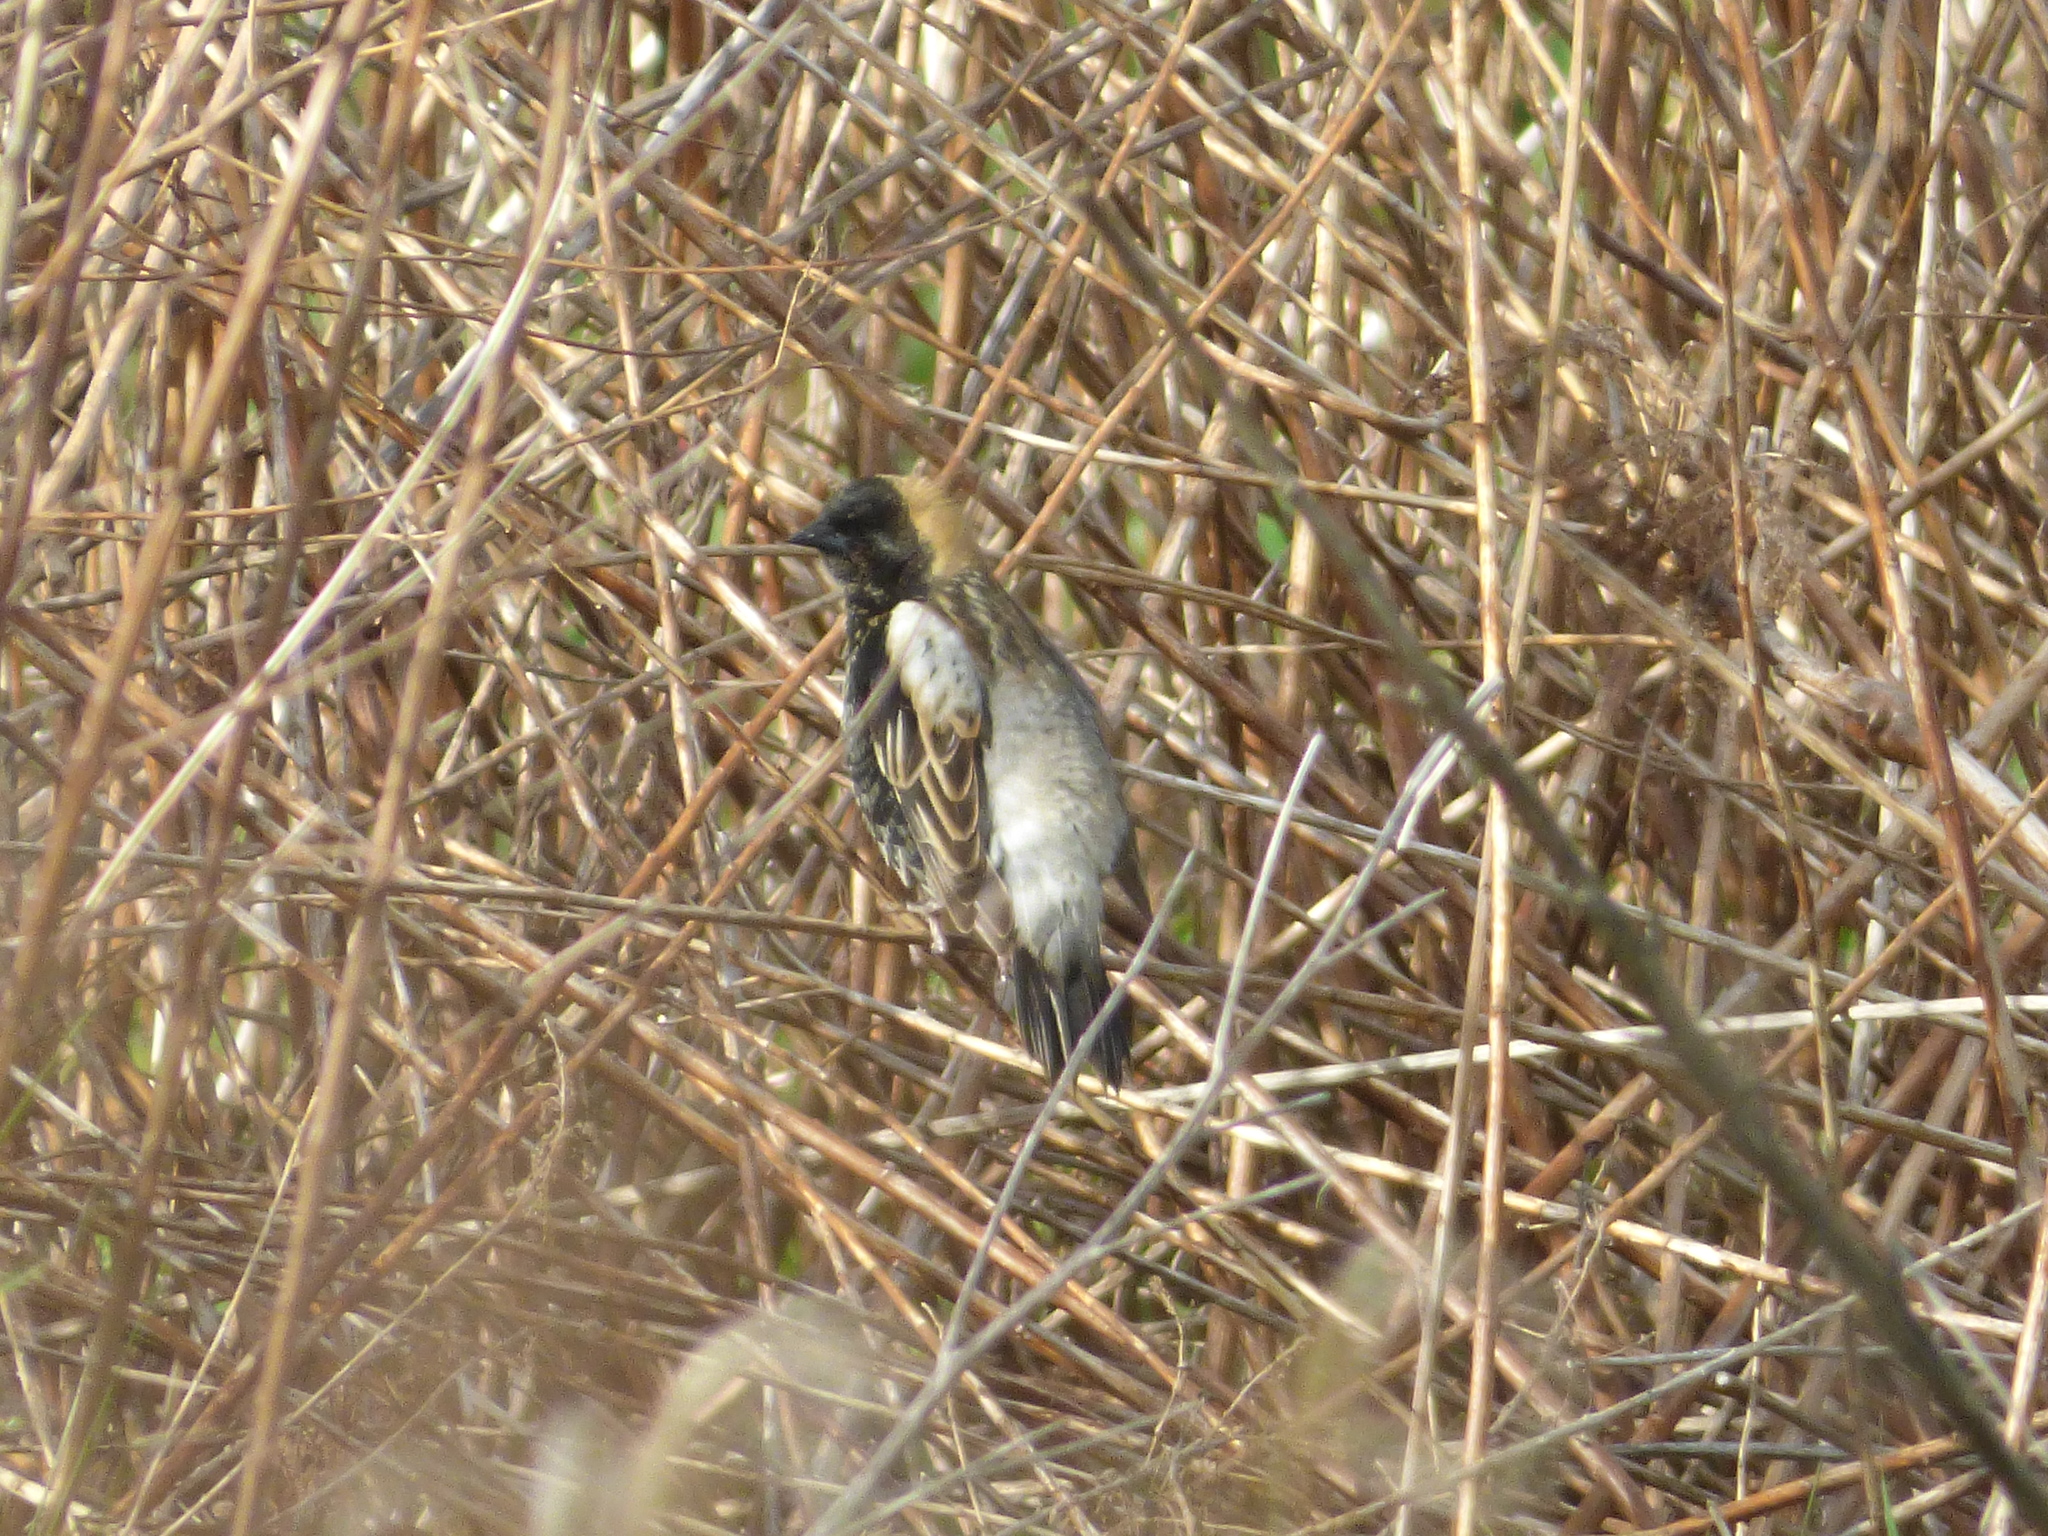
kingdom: Animalia
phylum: Chordata
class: Aves
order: Passeriformes
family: Icteridae
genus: Dolichonyx
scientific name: Dolichonyx oryzivorus
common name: Bobolink
